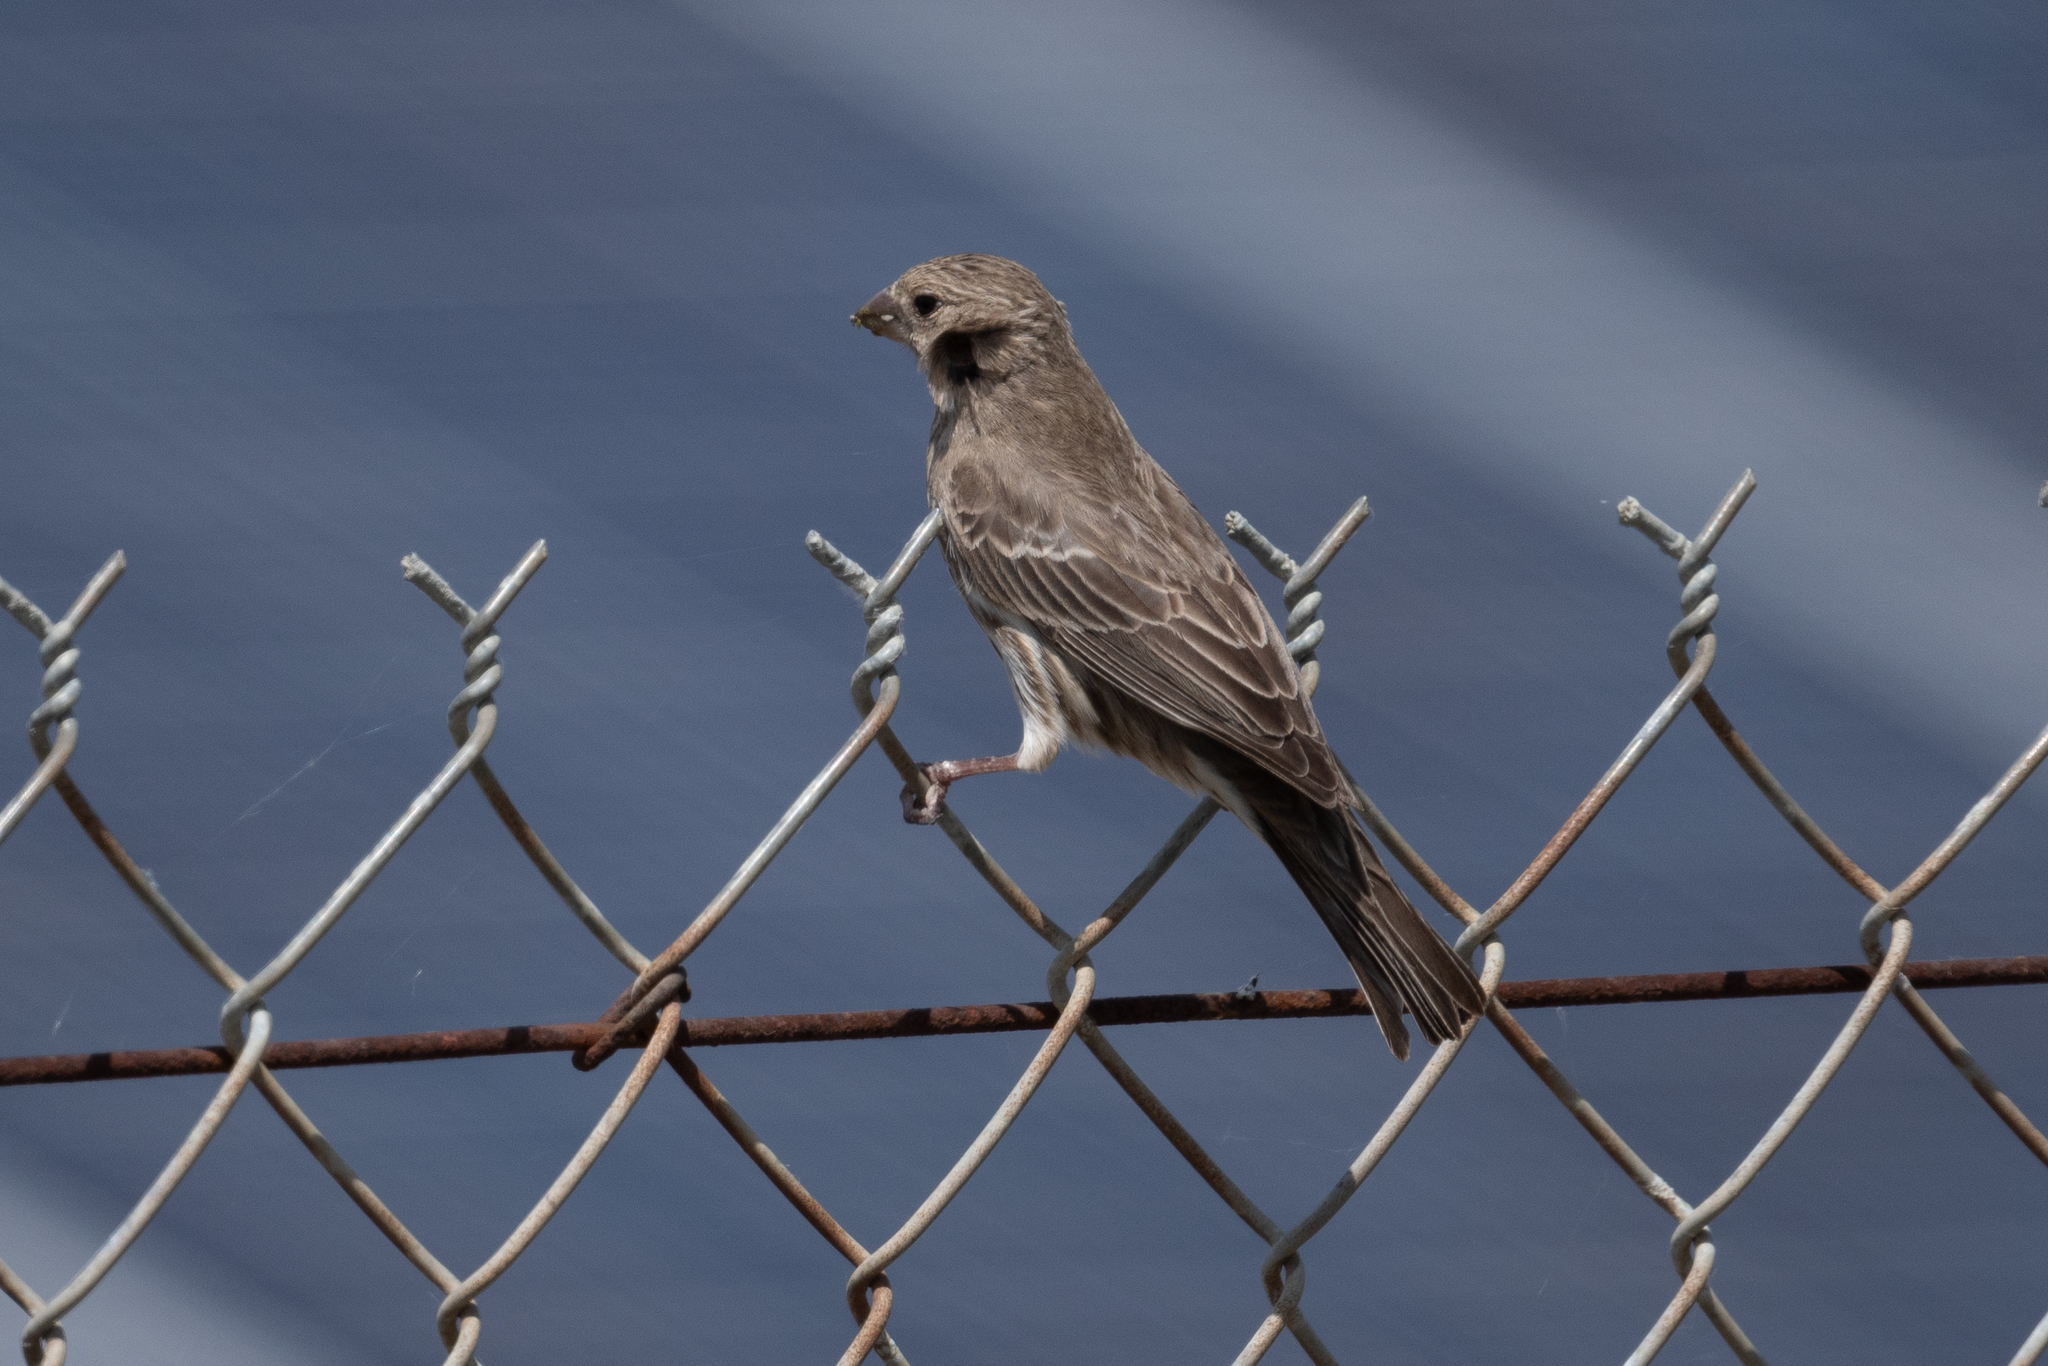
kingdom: Animalia
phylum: Chordata
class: Aves
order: Passeriformes
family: Fringillidae
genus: Haemorhous
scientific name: Haemorhous mexicanus
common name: House finch
